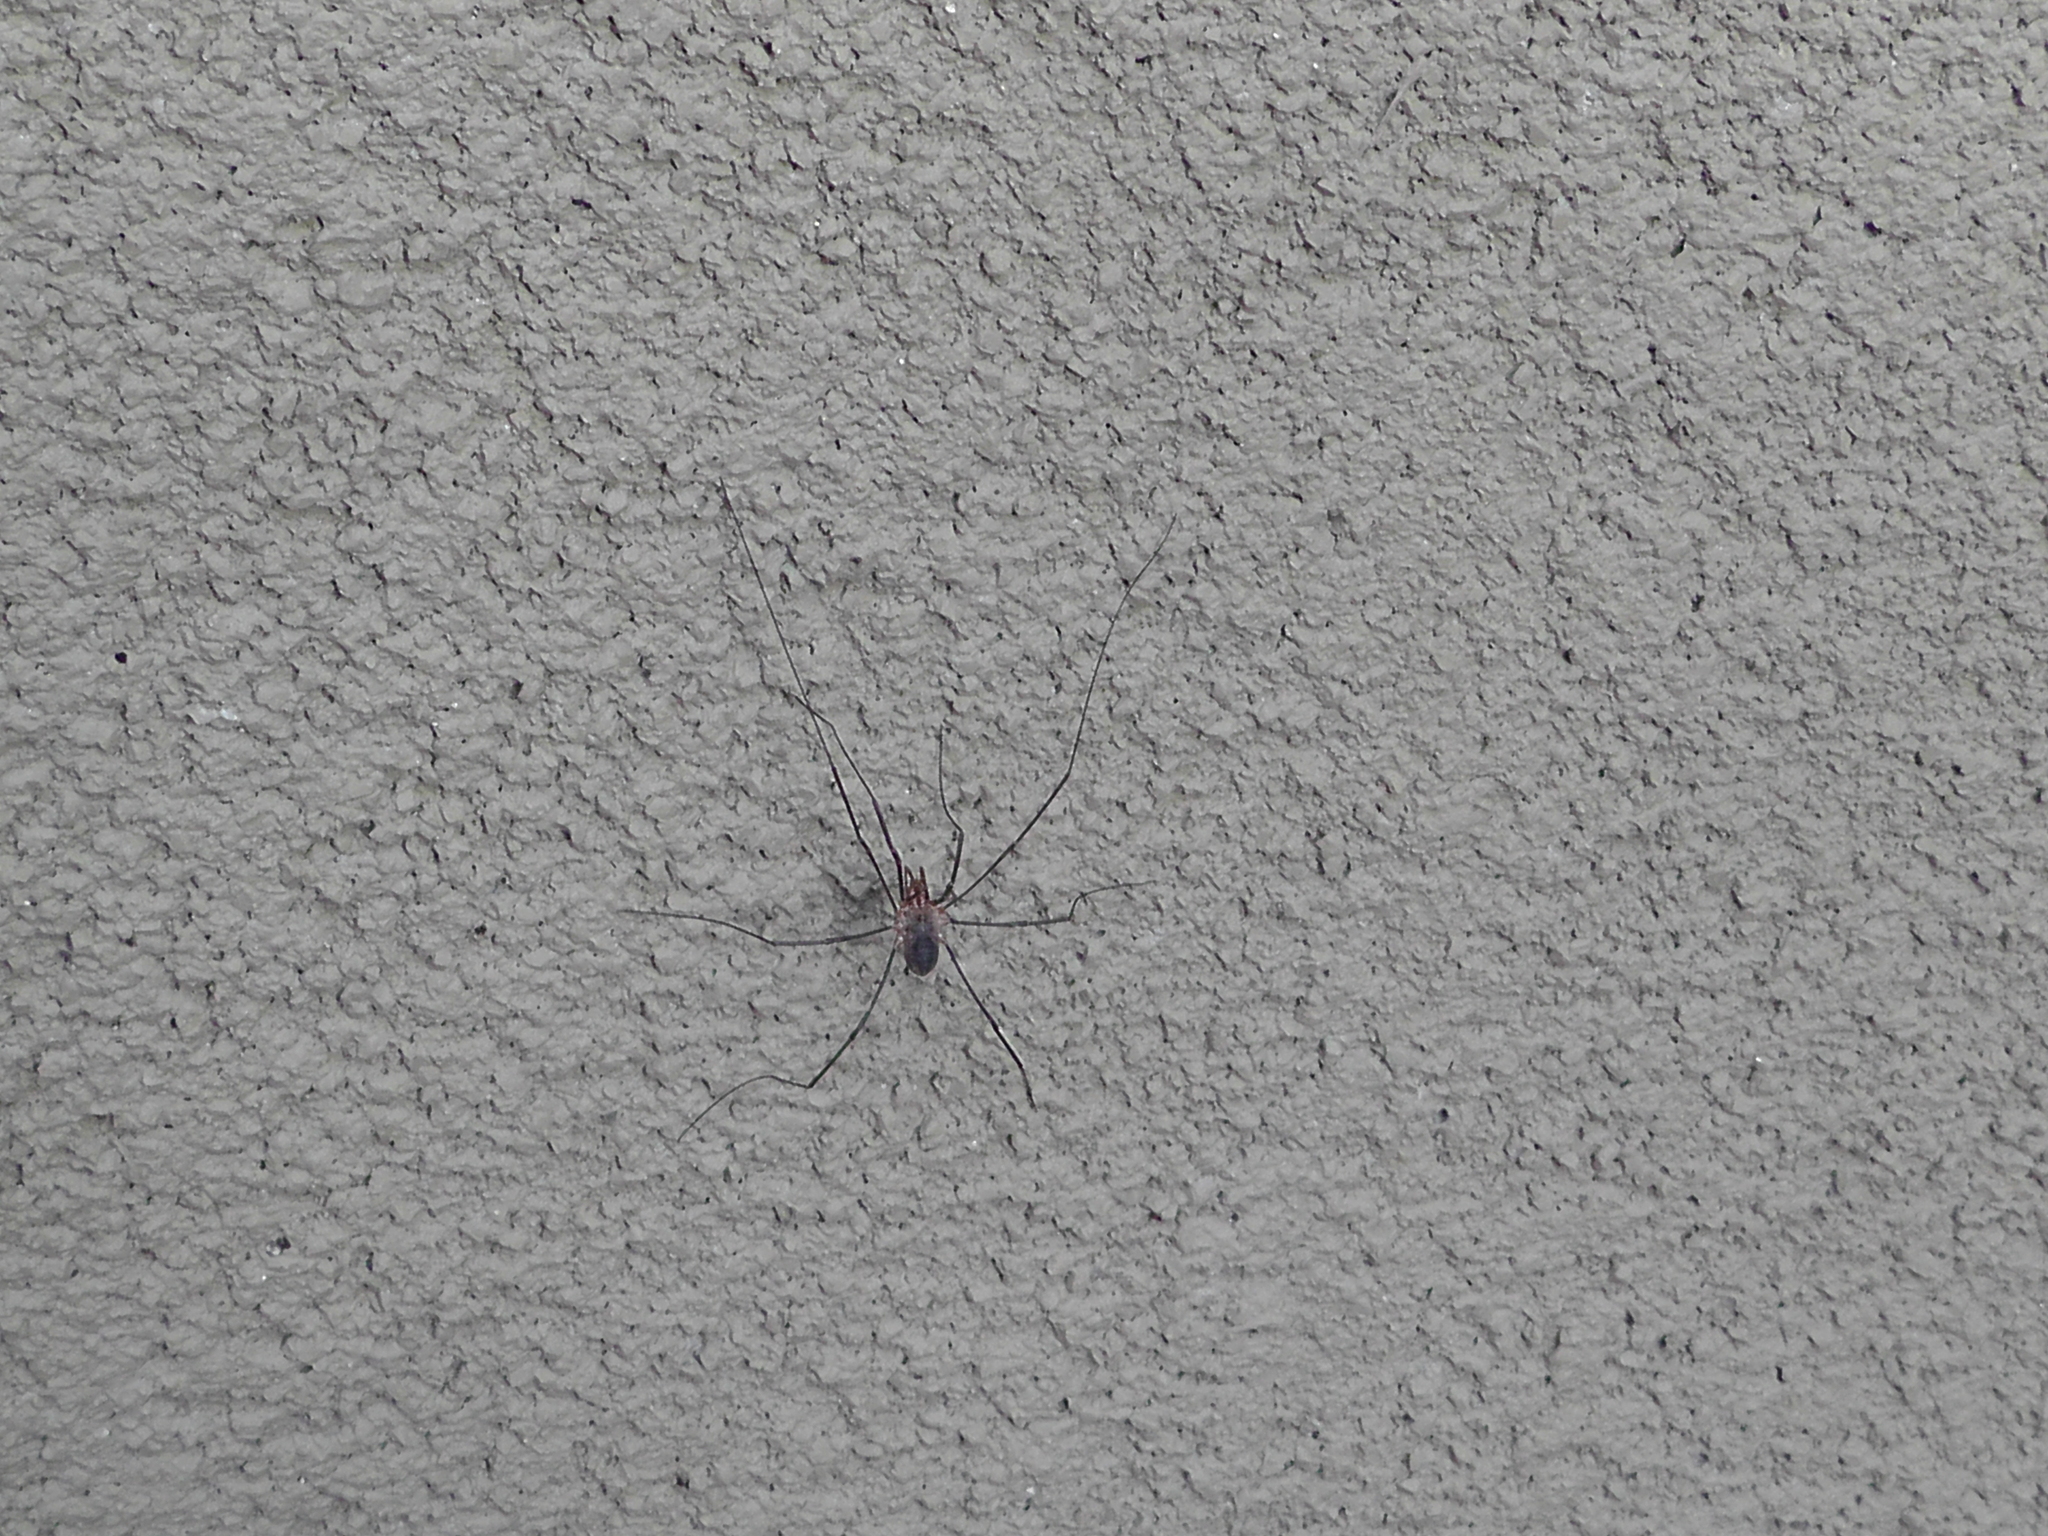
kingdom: Animalia
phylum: Arthropoda
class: Arachnida
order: Opiliones
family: Phalangiidae
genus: Phalangium
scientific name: Phalangium opilio
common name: Daddy longleg
